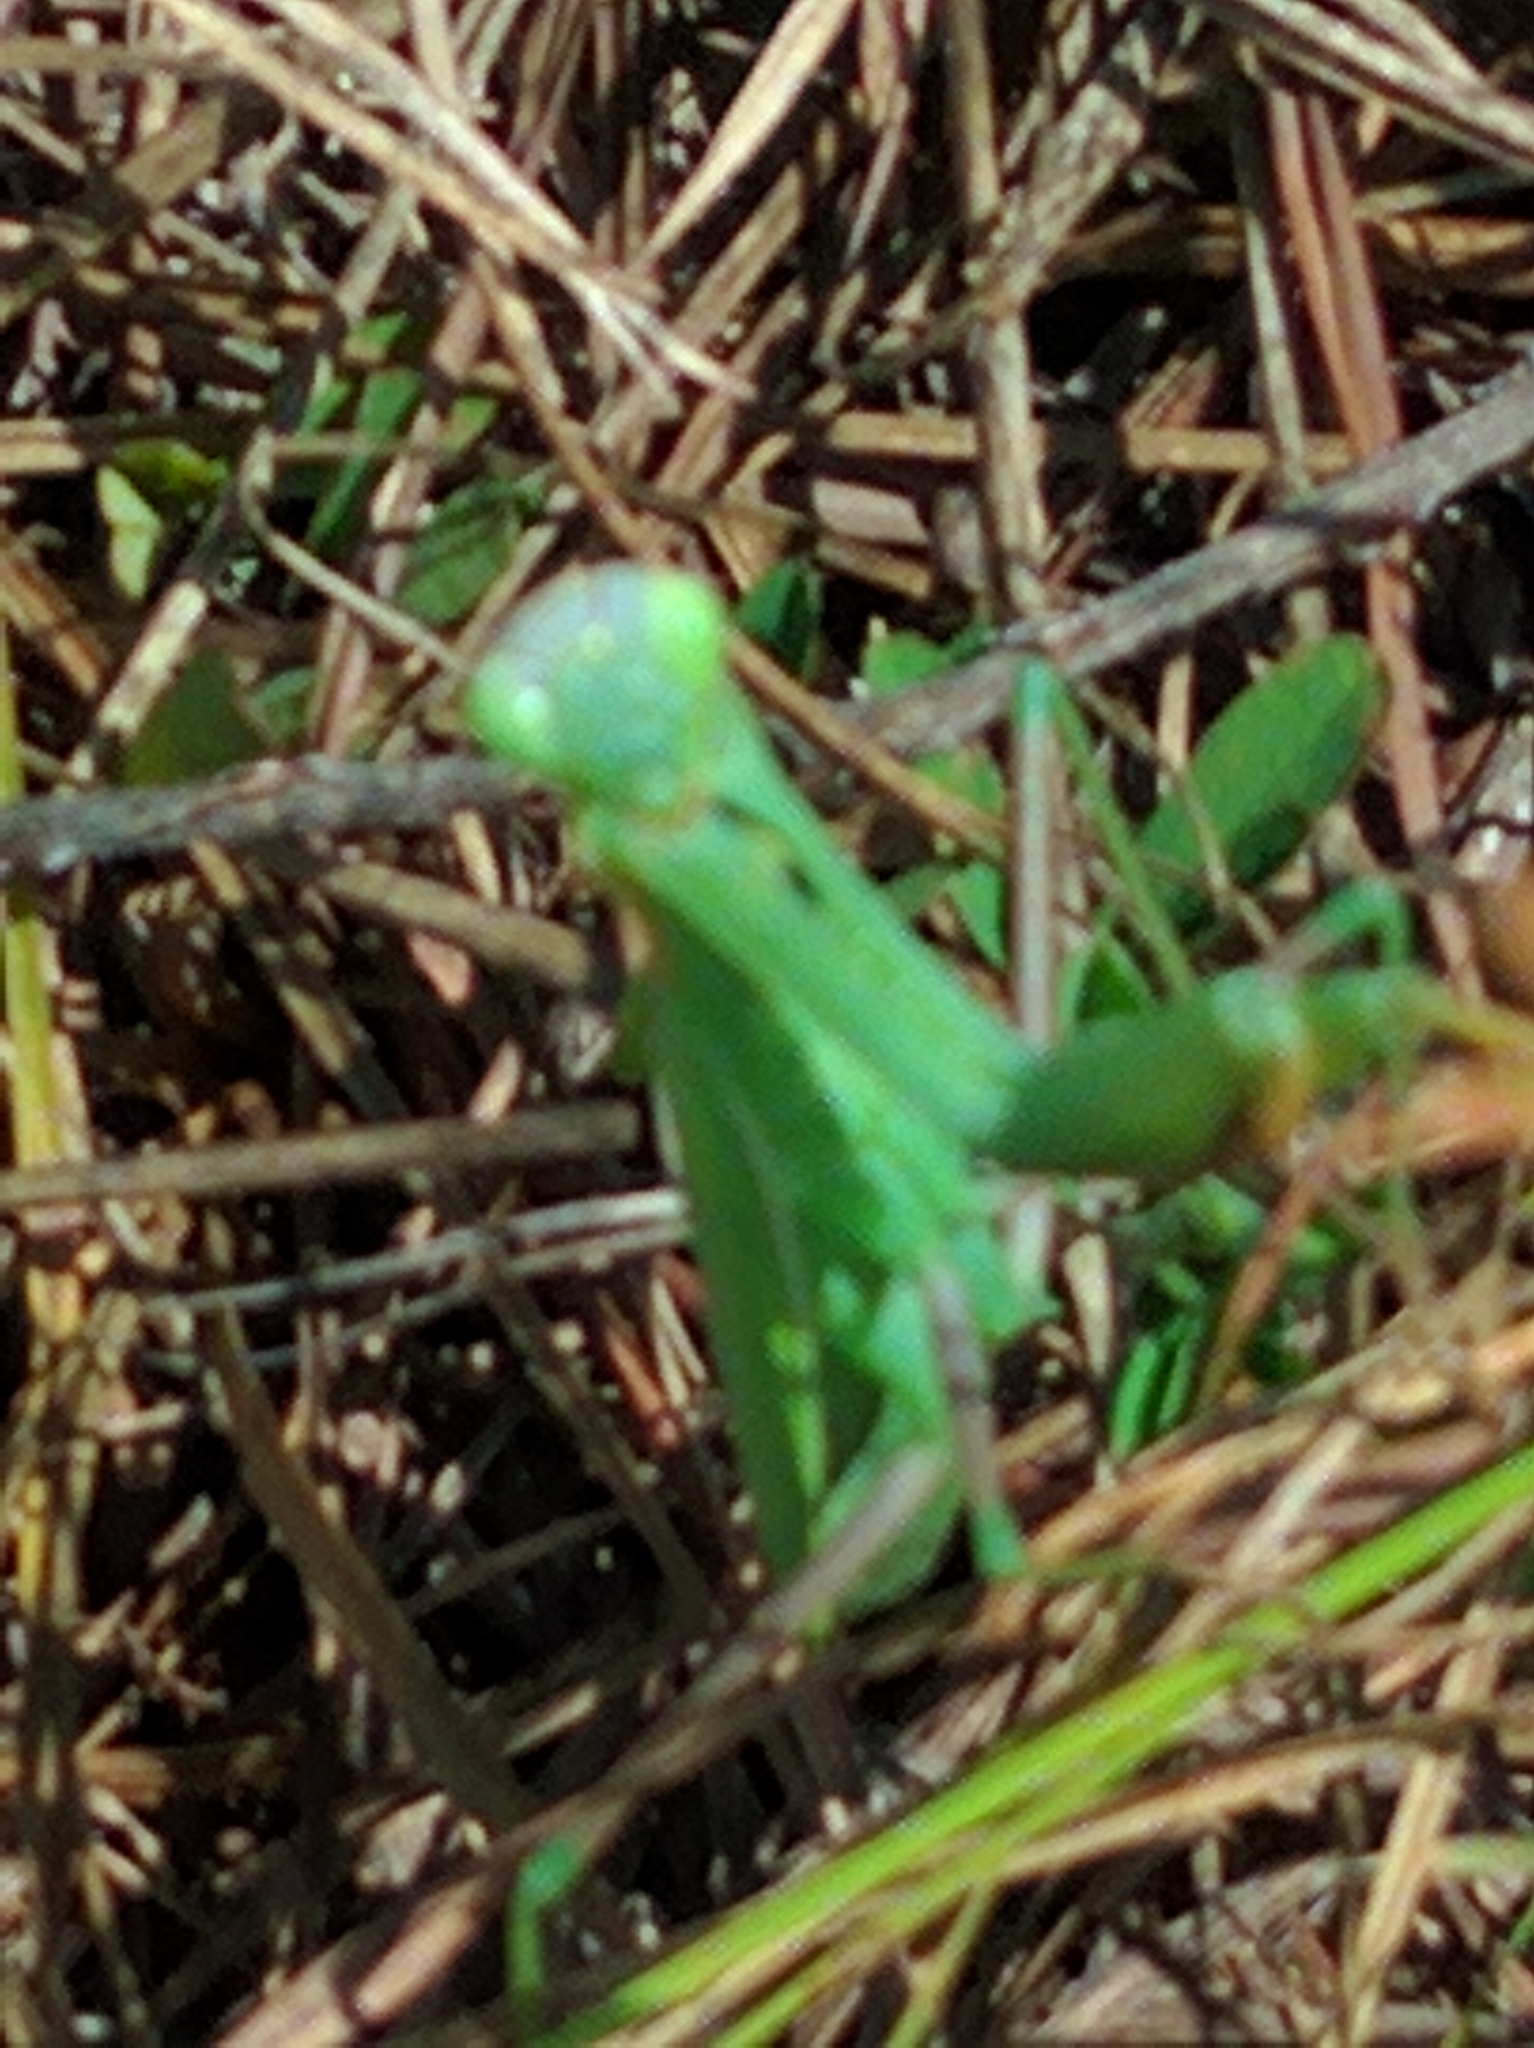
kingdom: Animalia
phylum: Arthropoda
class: Insecta
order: Mantodea
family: Mantidae
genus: Mantis
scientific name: Mantis religiosa
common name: Praying mantis
